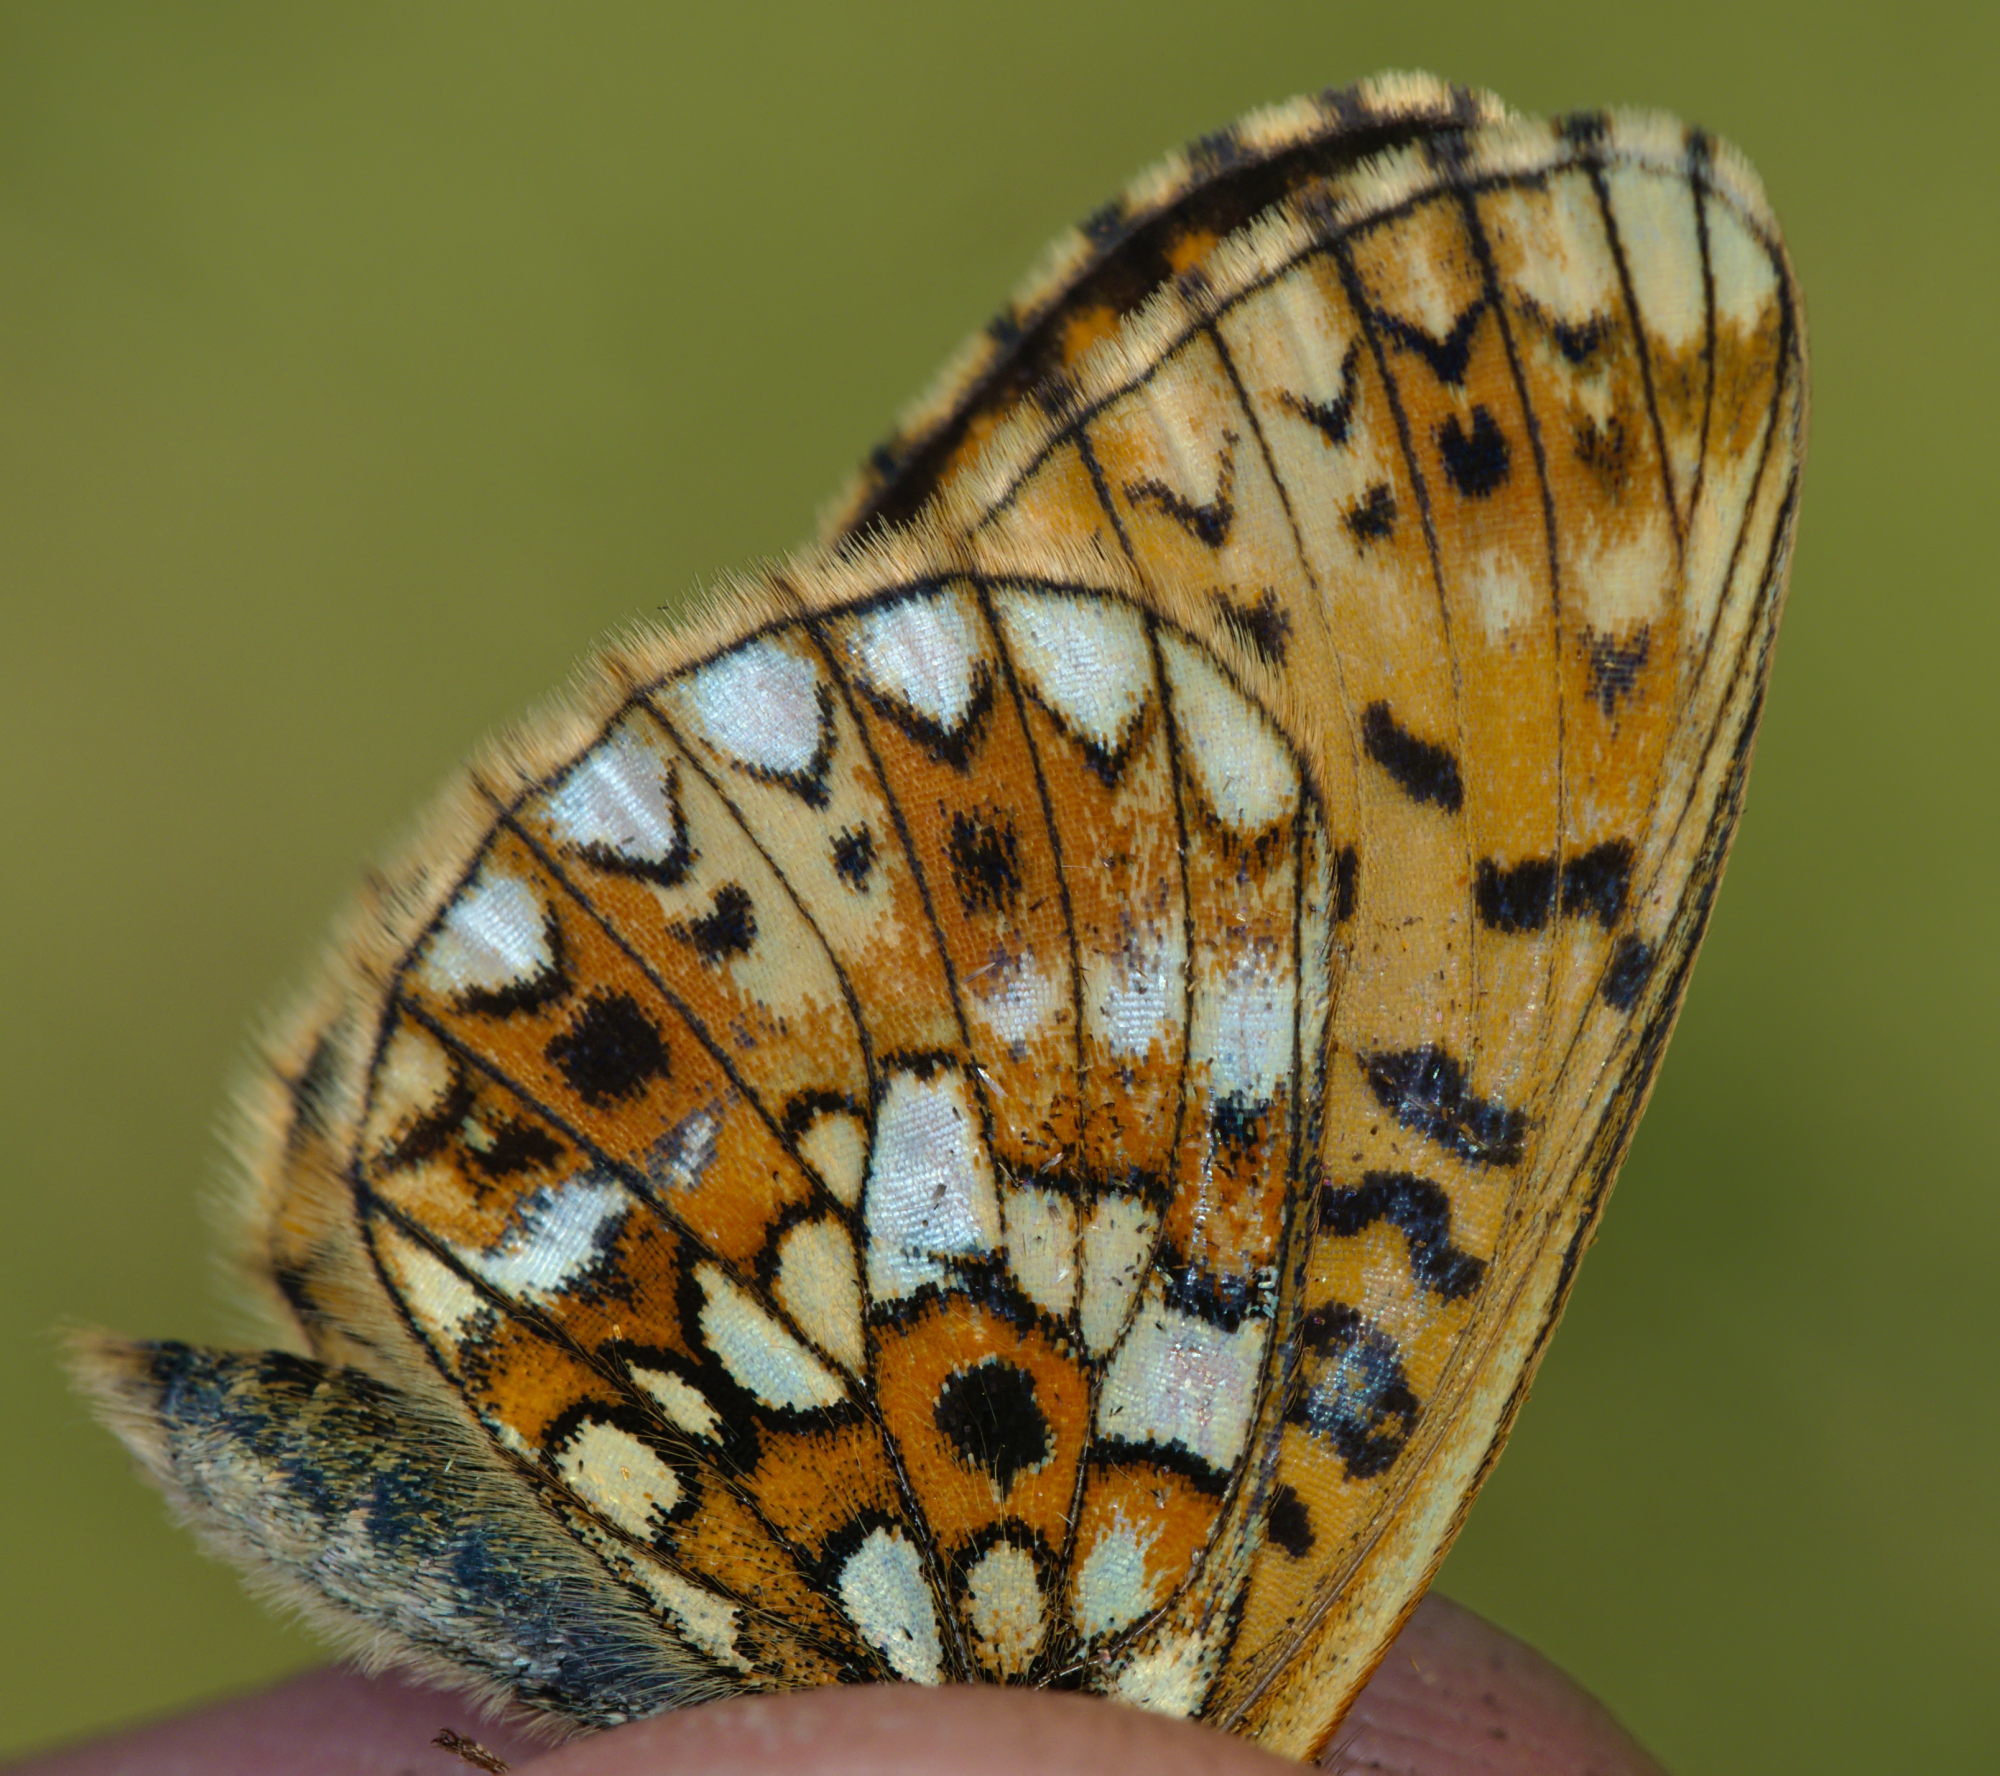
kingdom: Animalia
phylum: Arthropoda
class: Insecta
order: Lepidoptera
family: Nymphalidae
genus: Boloria
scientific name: Boloria selene
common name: Small pearl-bordered fritillary
